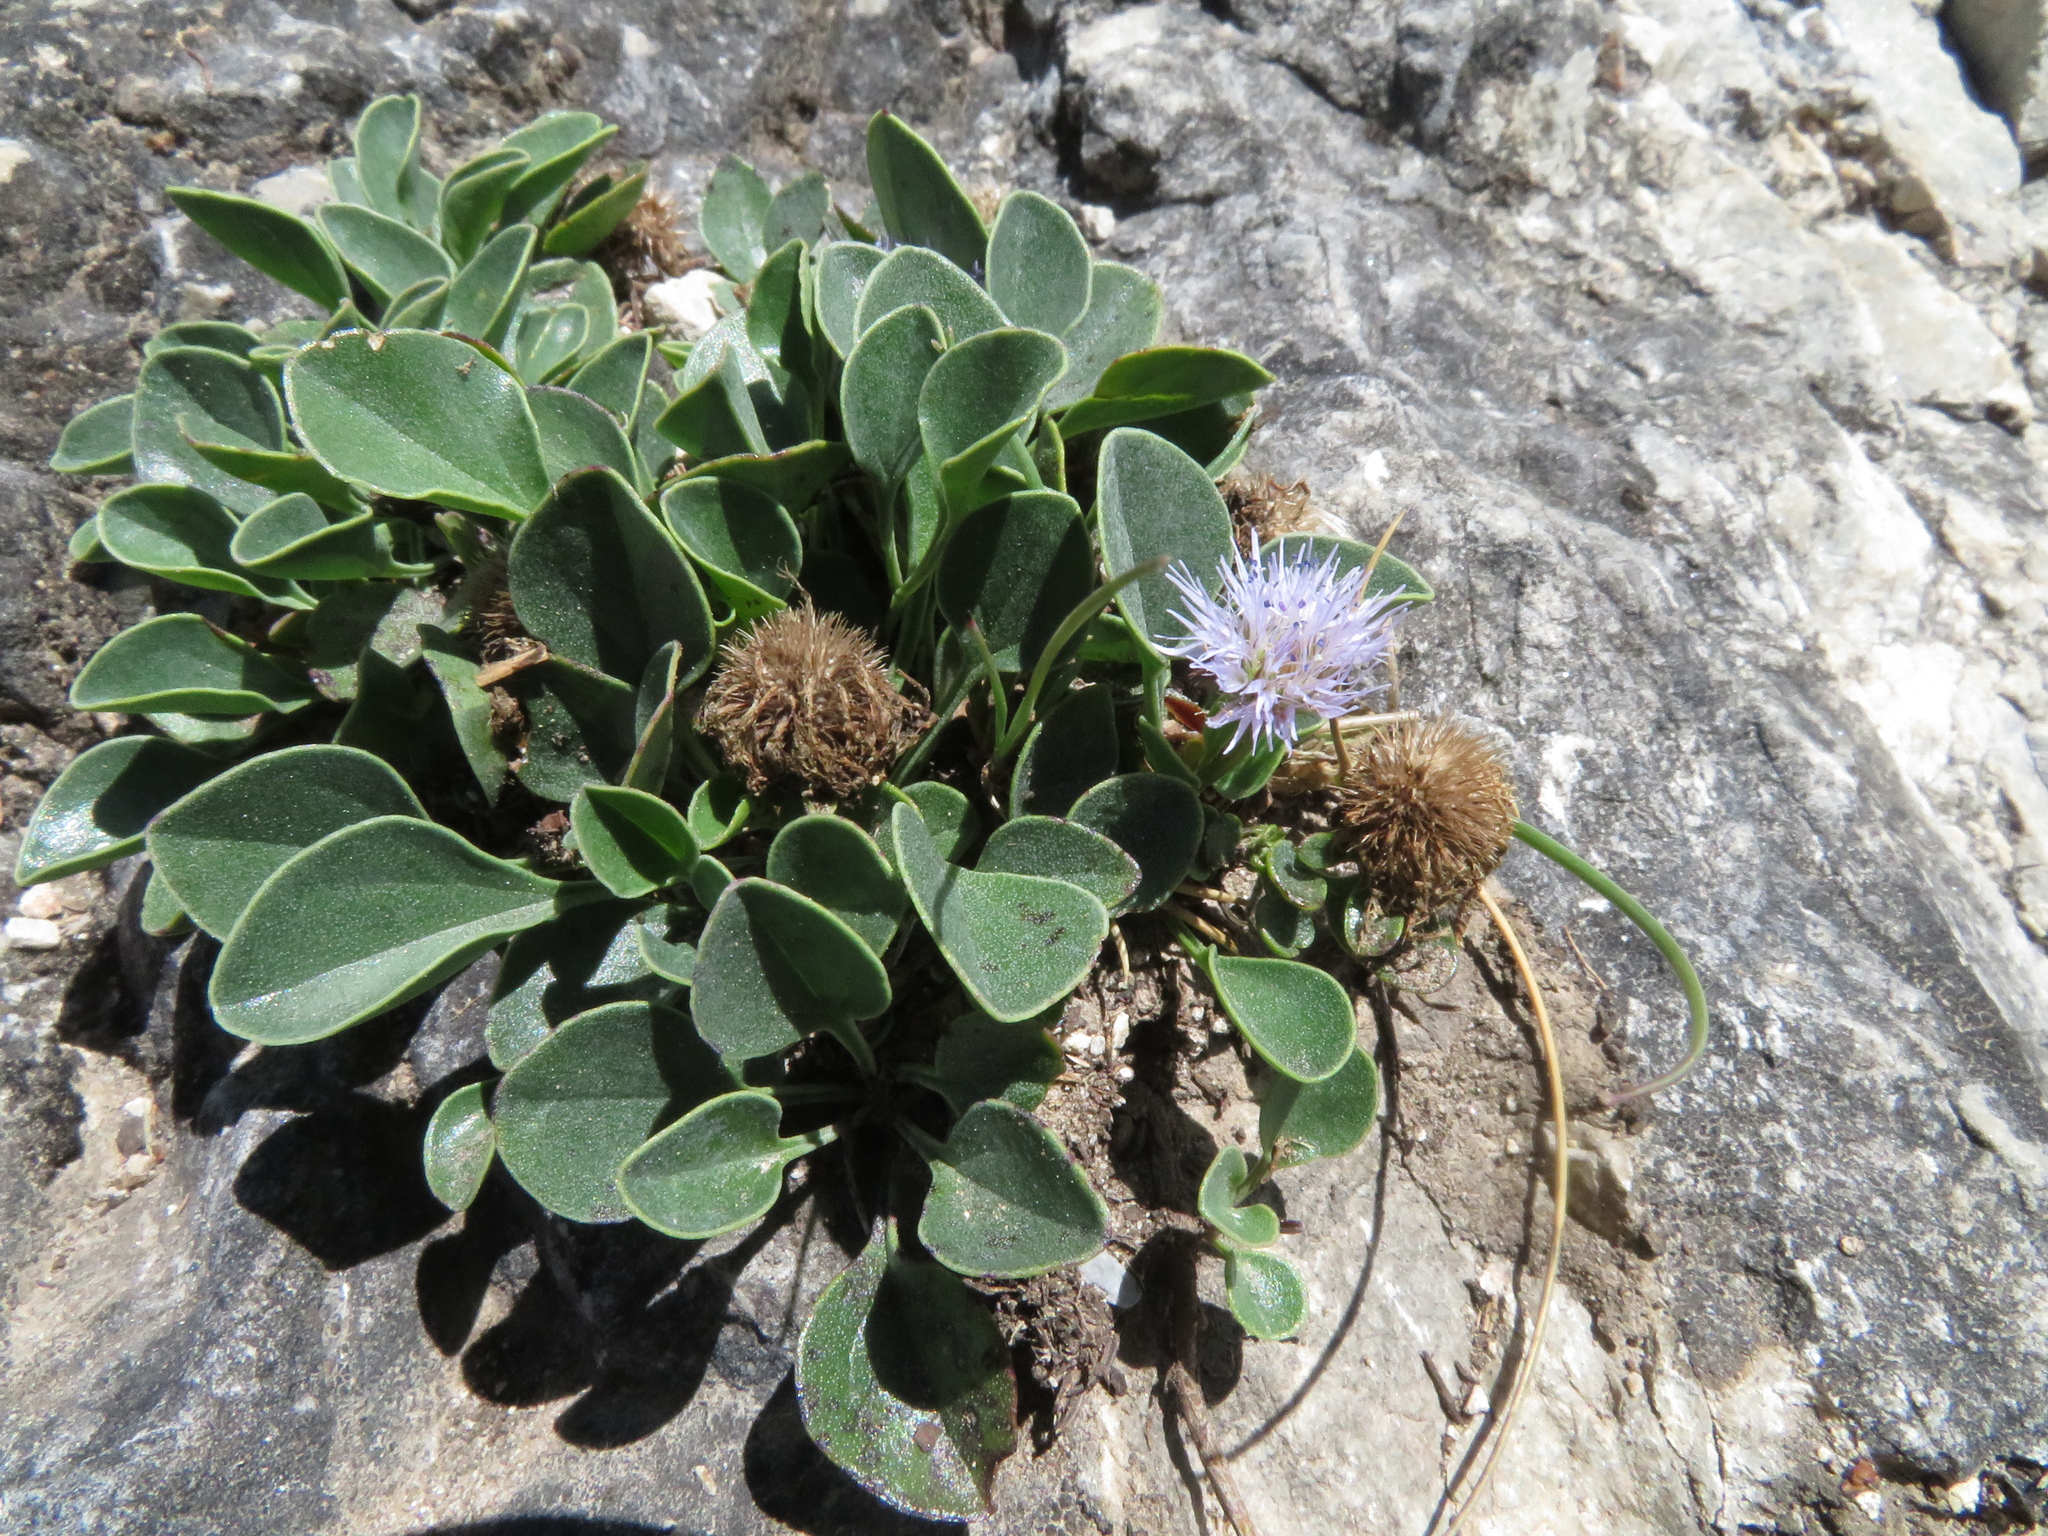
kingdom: Plantae
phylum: Tracheophyta
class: Magnoliopsida
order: Lamiales
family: Plantaginaceae
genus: Globularia
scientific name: Globularia incanescens
